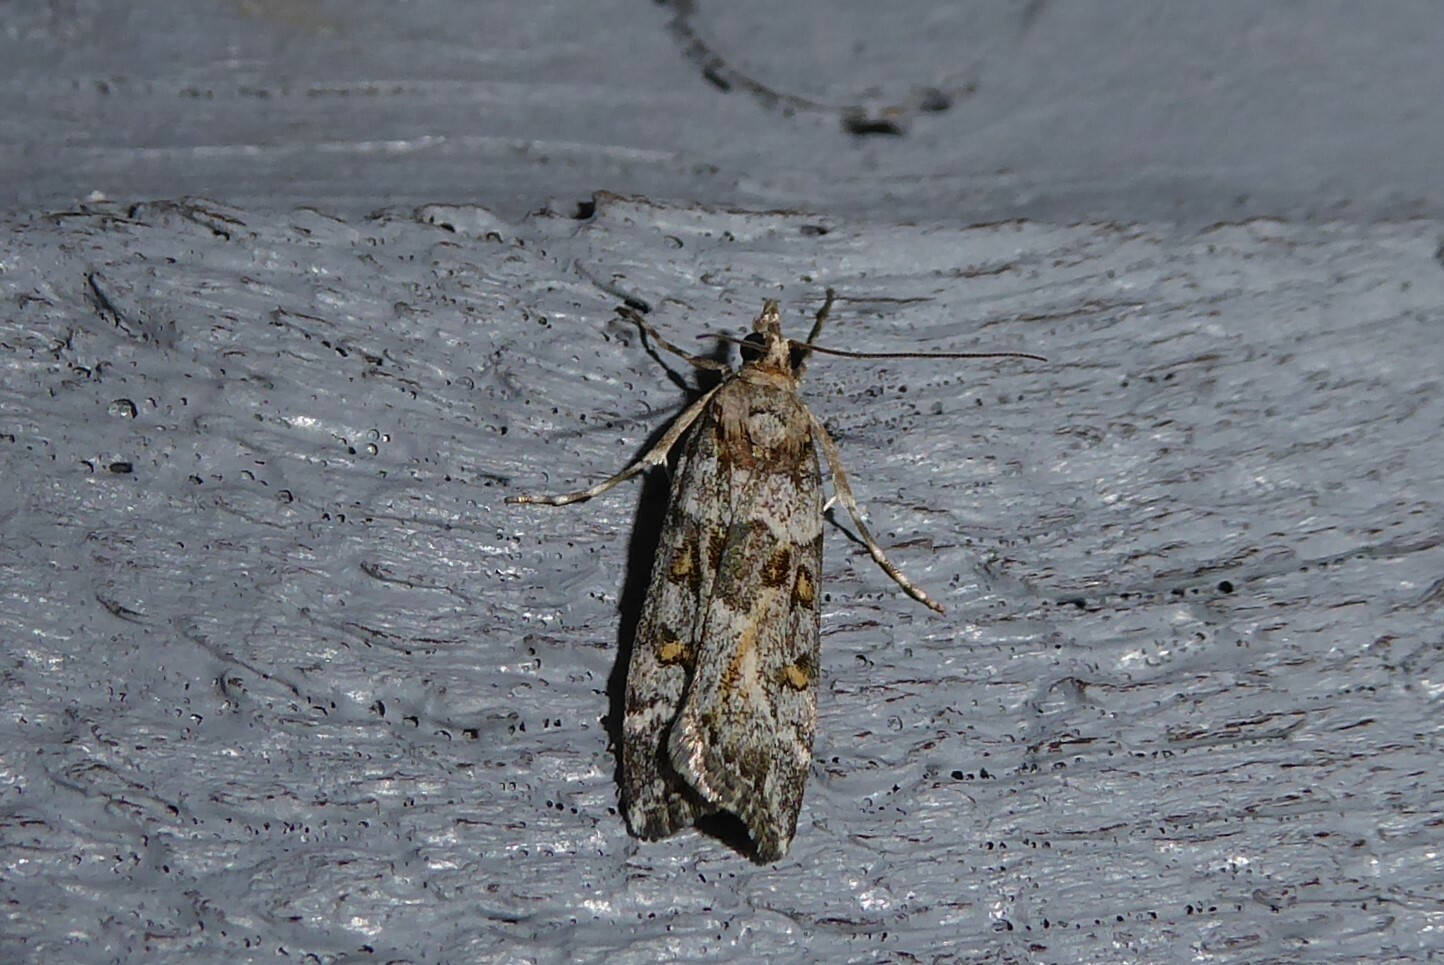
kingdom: Animalia
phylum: Arthropoda
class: Insecta
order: Lepidoptera
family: Crambidae
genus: Scoparia
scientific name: Scoparia tetracycla
